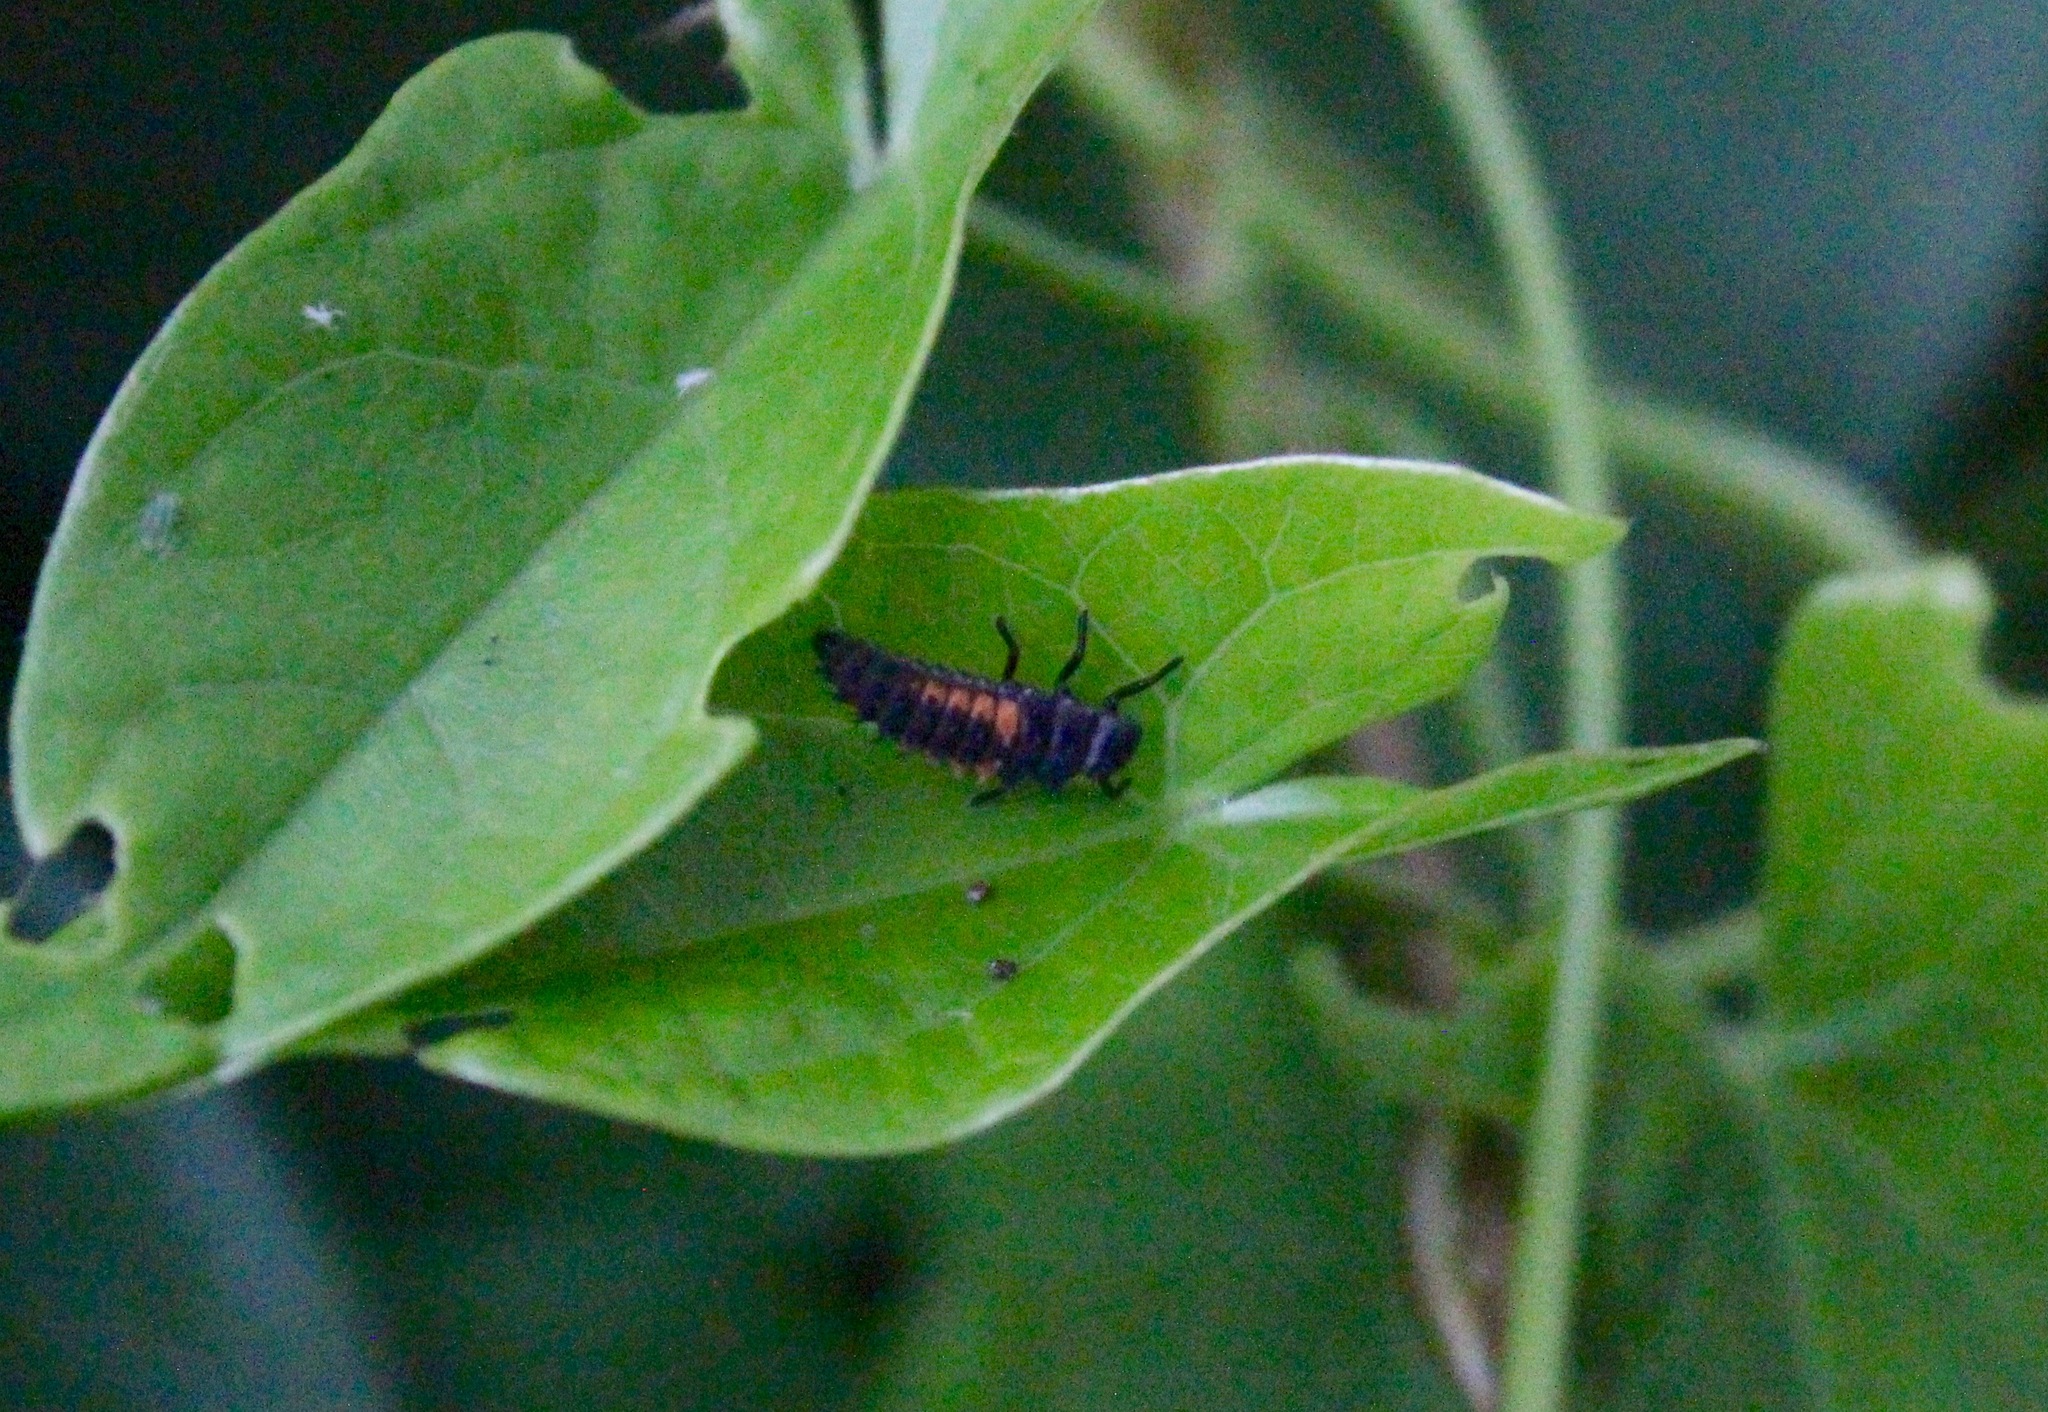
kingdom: Animalia
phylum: Arthropoda
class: Insecta
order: Coleoptera
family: Coccinellidae
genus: Harmonia
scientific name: Harmonia axyridis
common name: Harlequin ladybird
